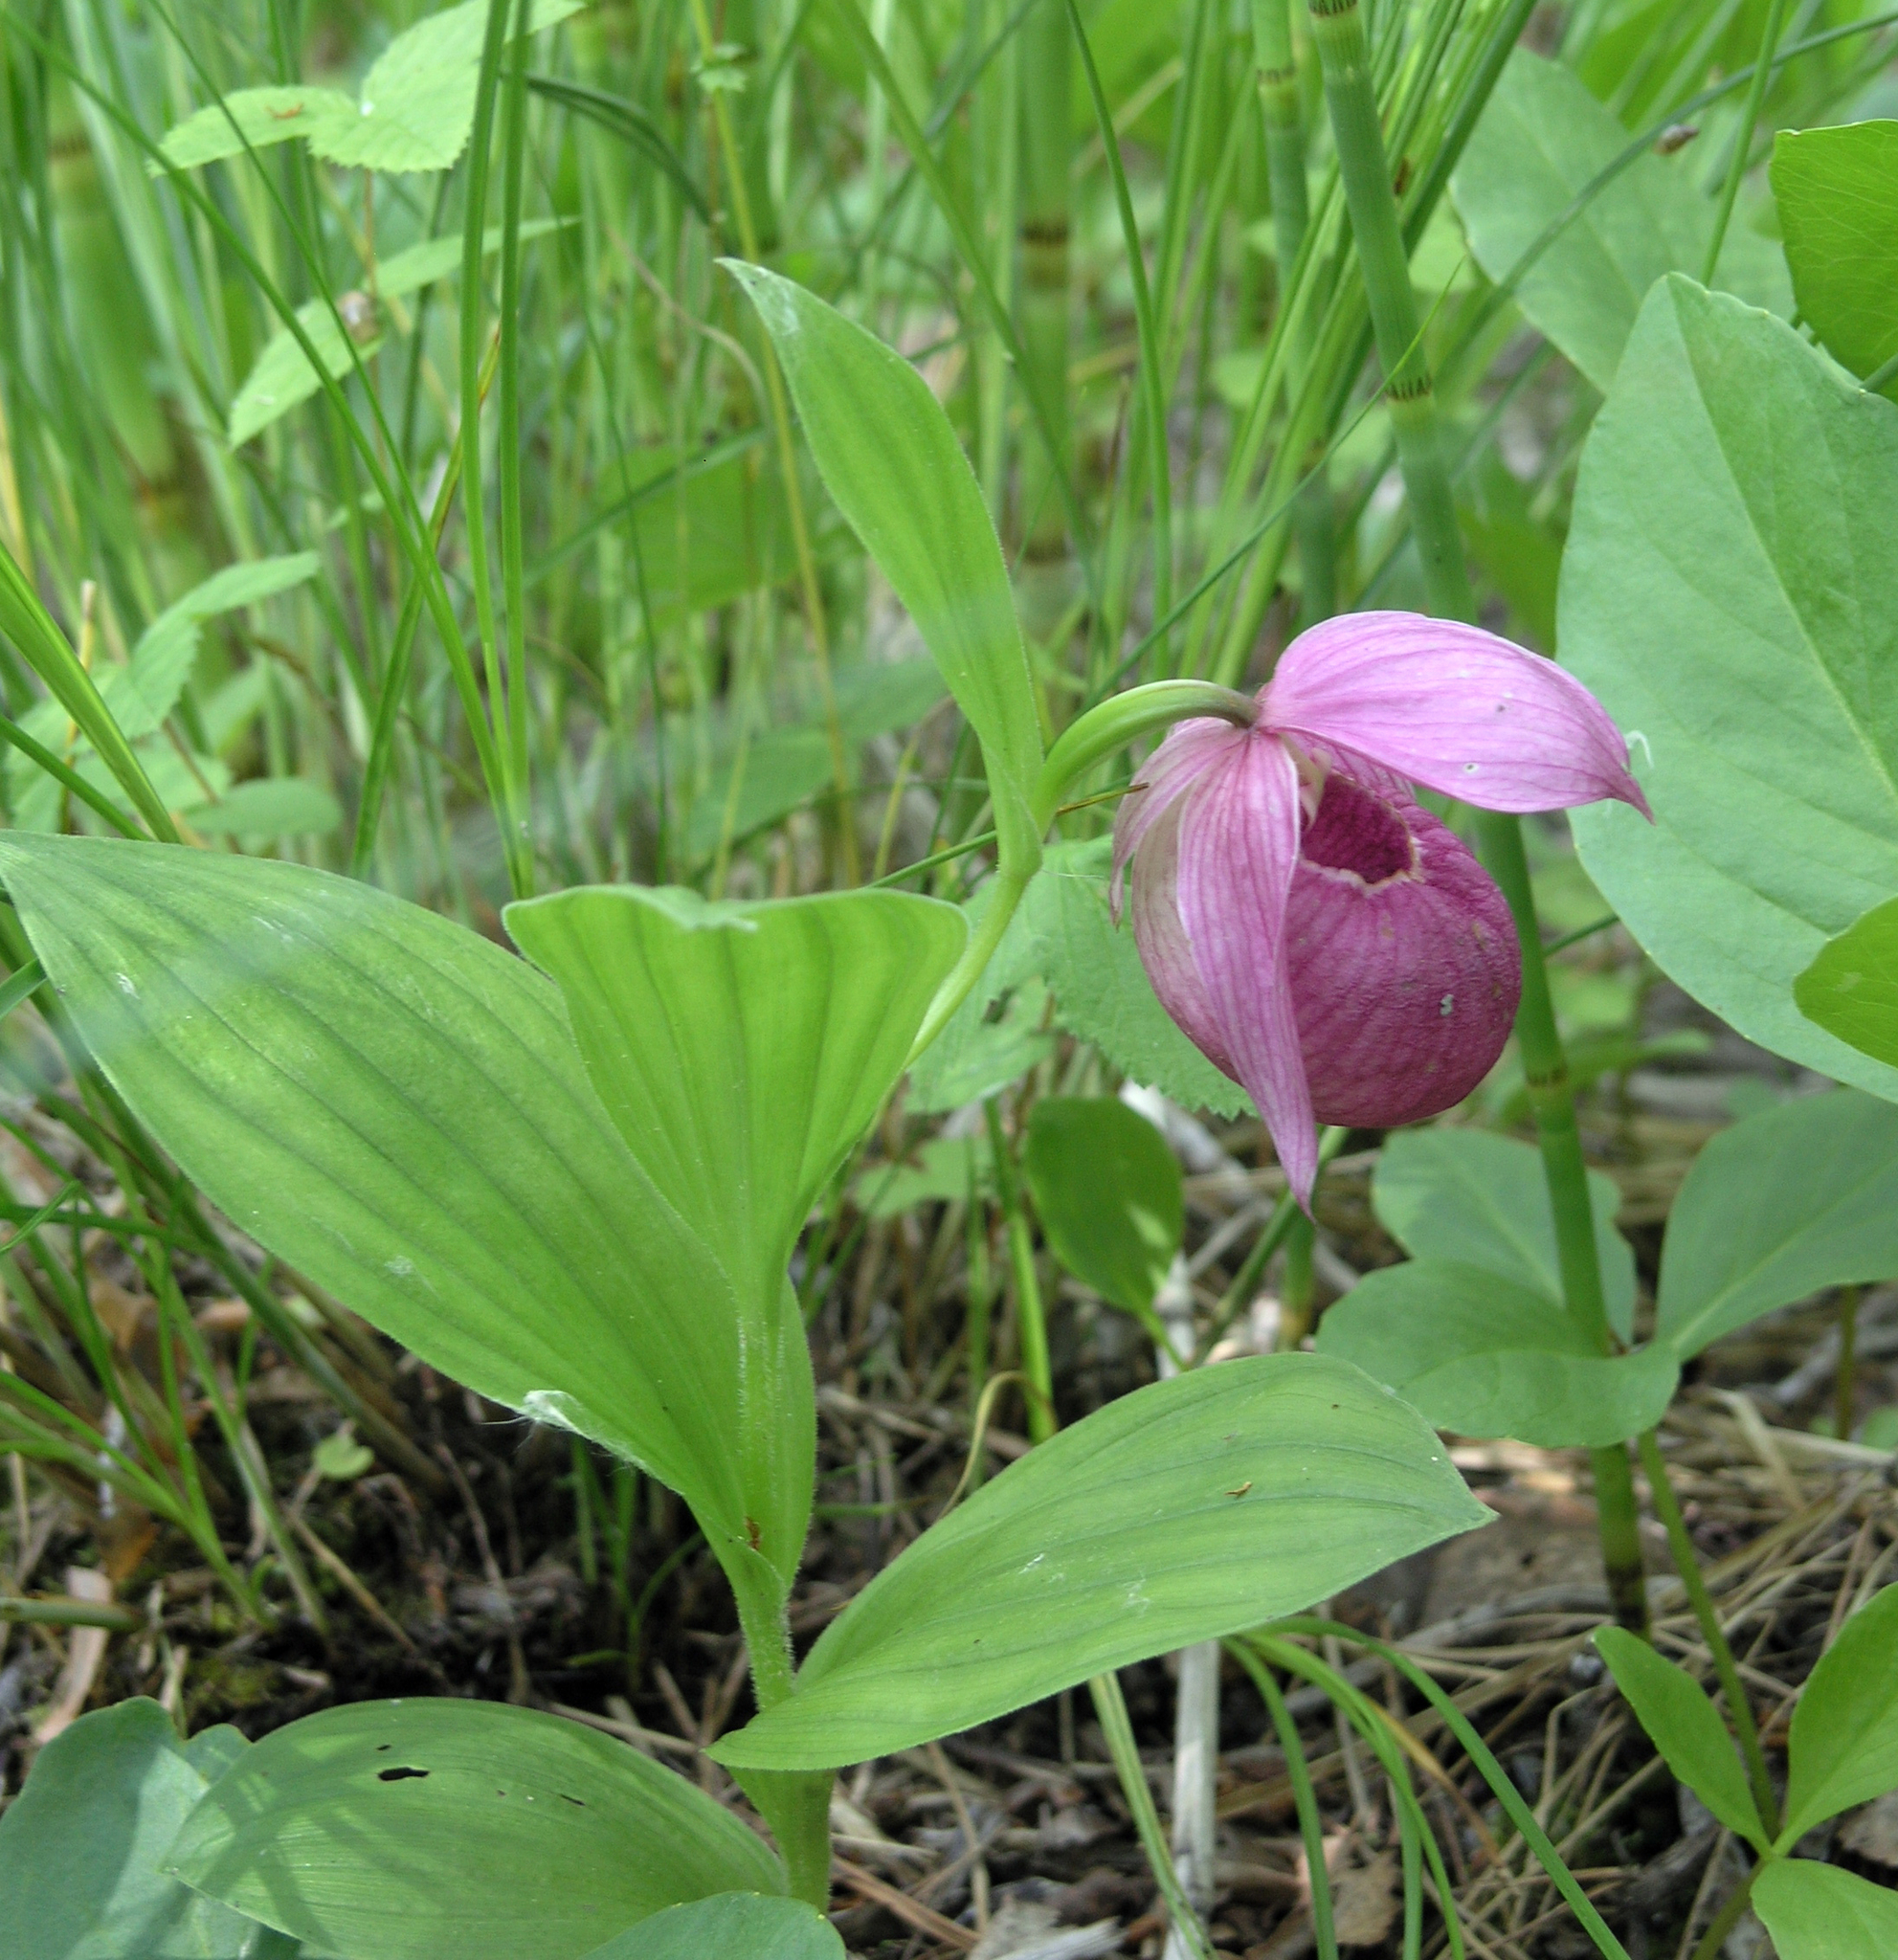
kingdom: Plantae
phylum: Tracheophyta
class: Liliopsida
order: Asparagales
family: Orchidaceae
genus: Cypripedium
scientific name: Cypripedium macranthos
